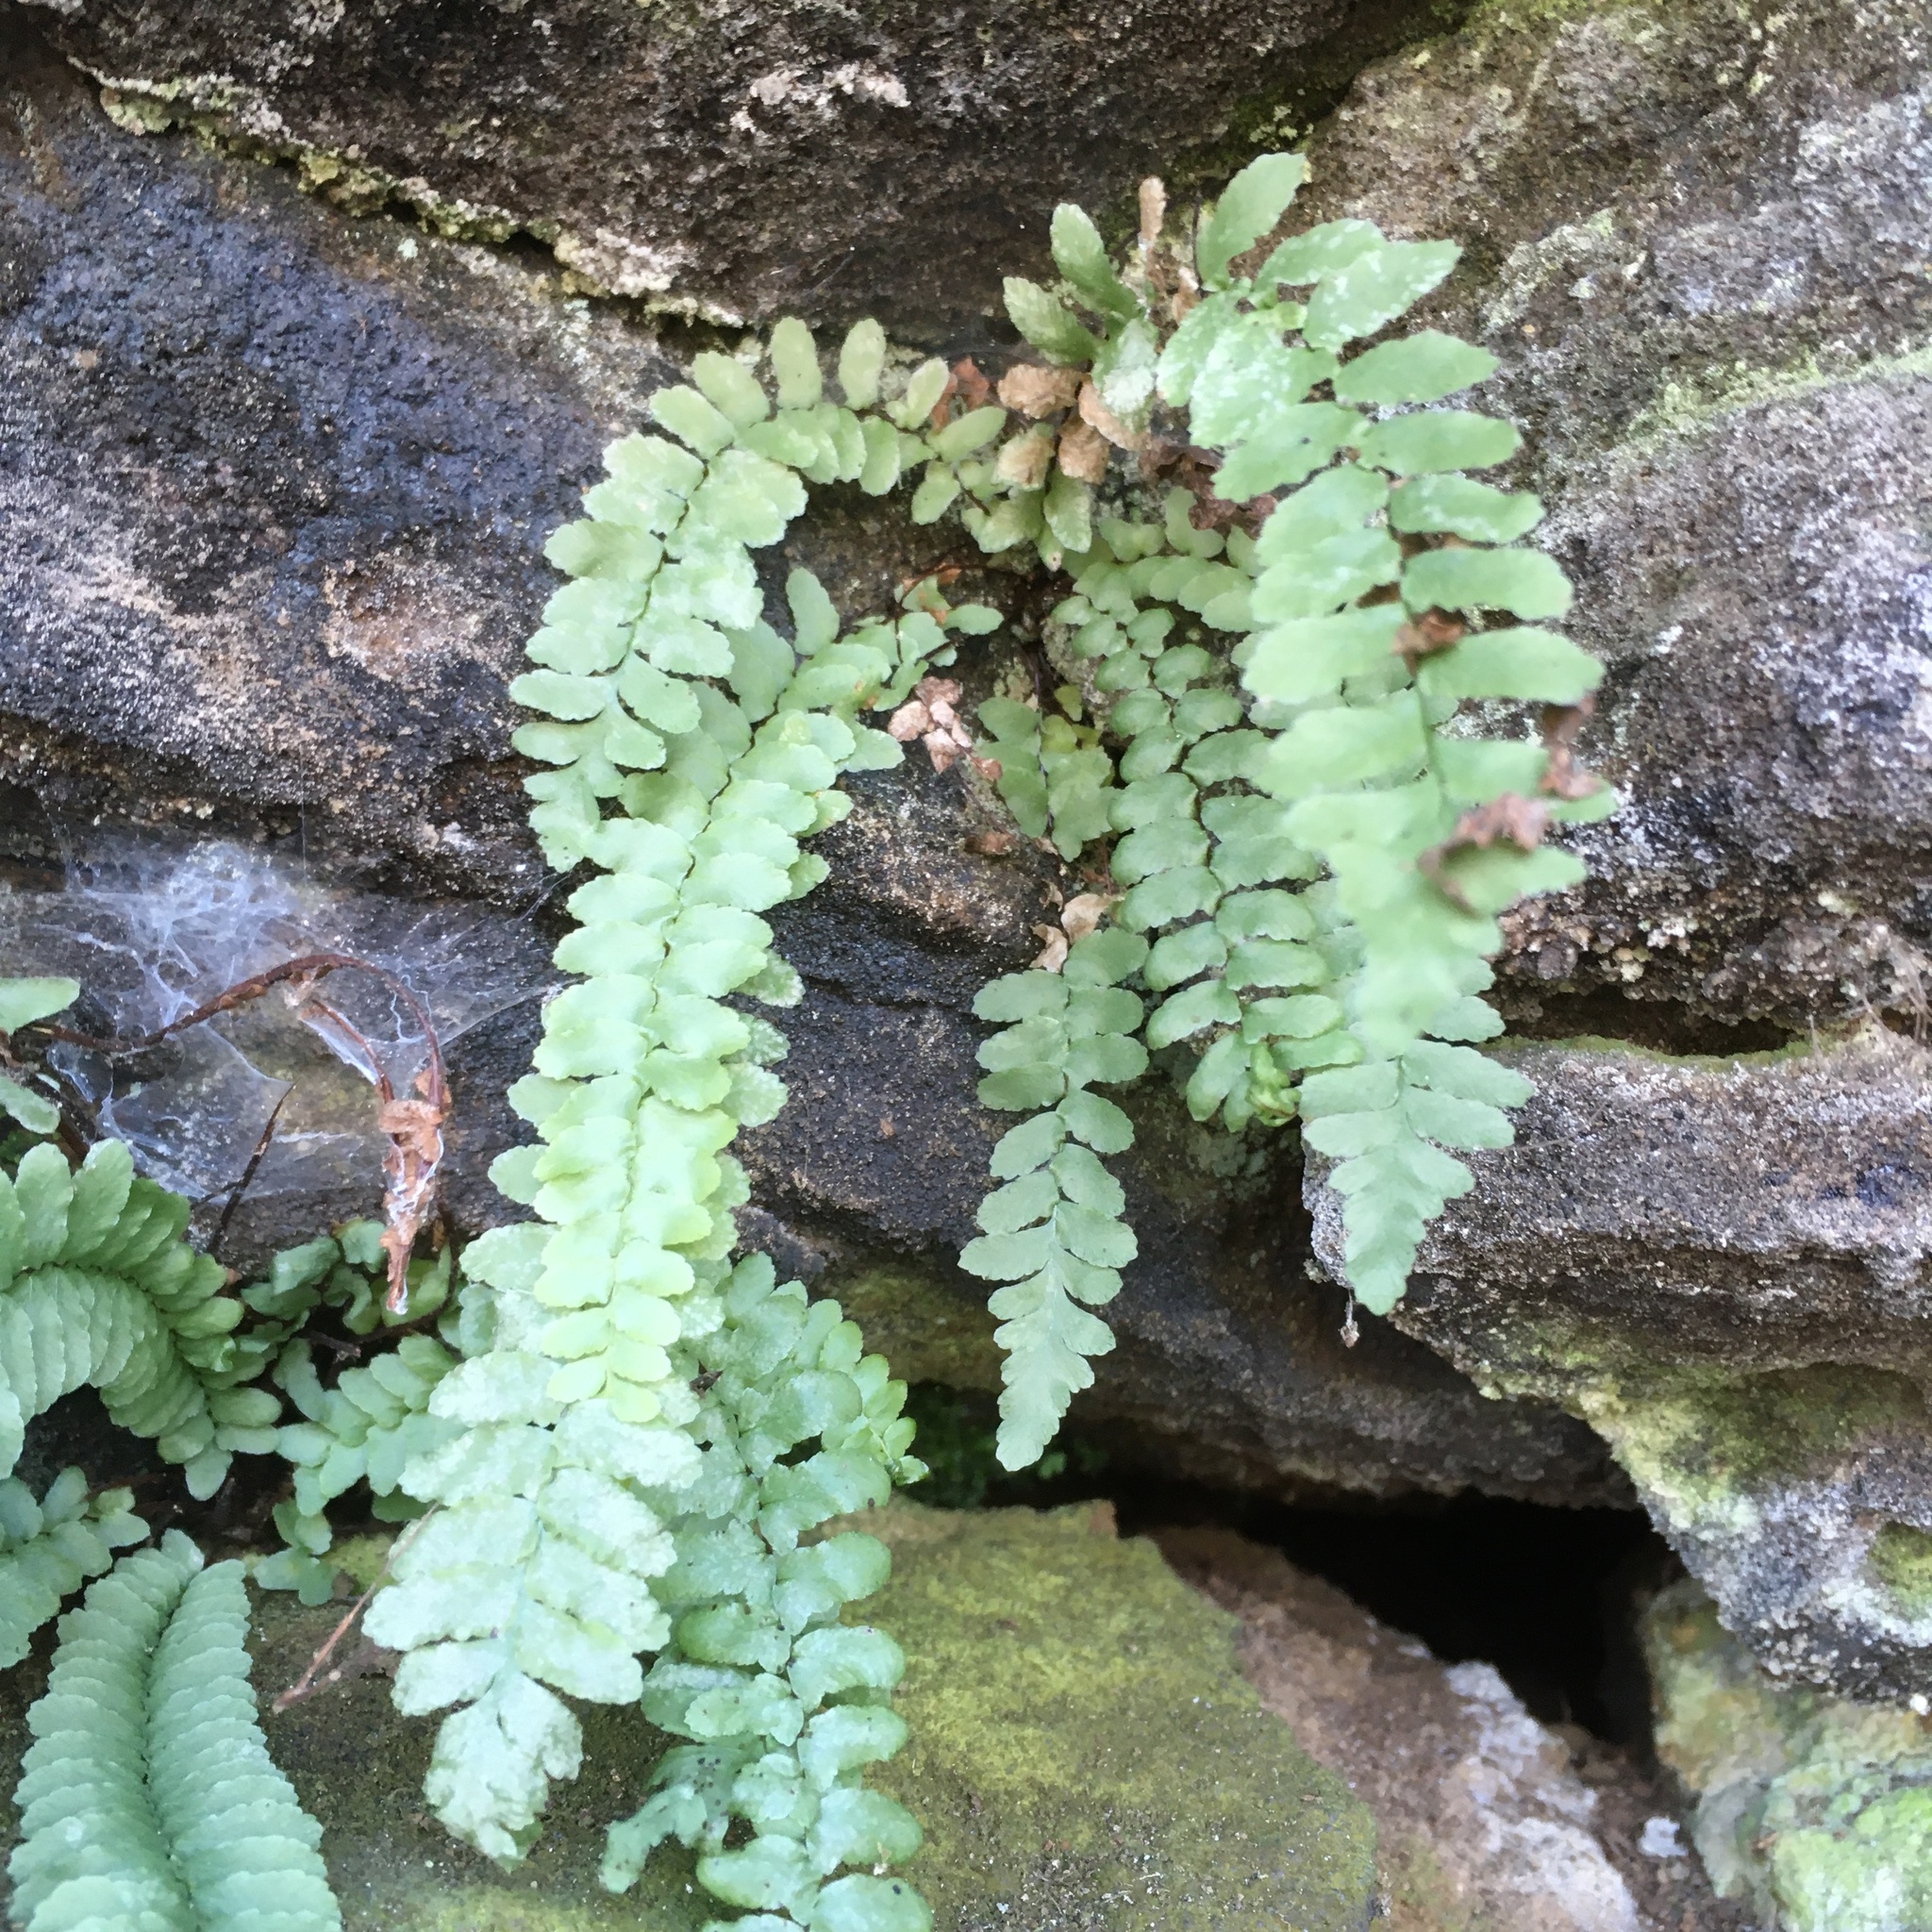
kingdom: Plantae
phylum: Tracheophyta
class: Polypodiopsida
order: Polypodiales
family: Aspleniaceae
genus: Asplenium
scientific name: Asplenium platyneuron
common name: Ebony spleenwort
